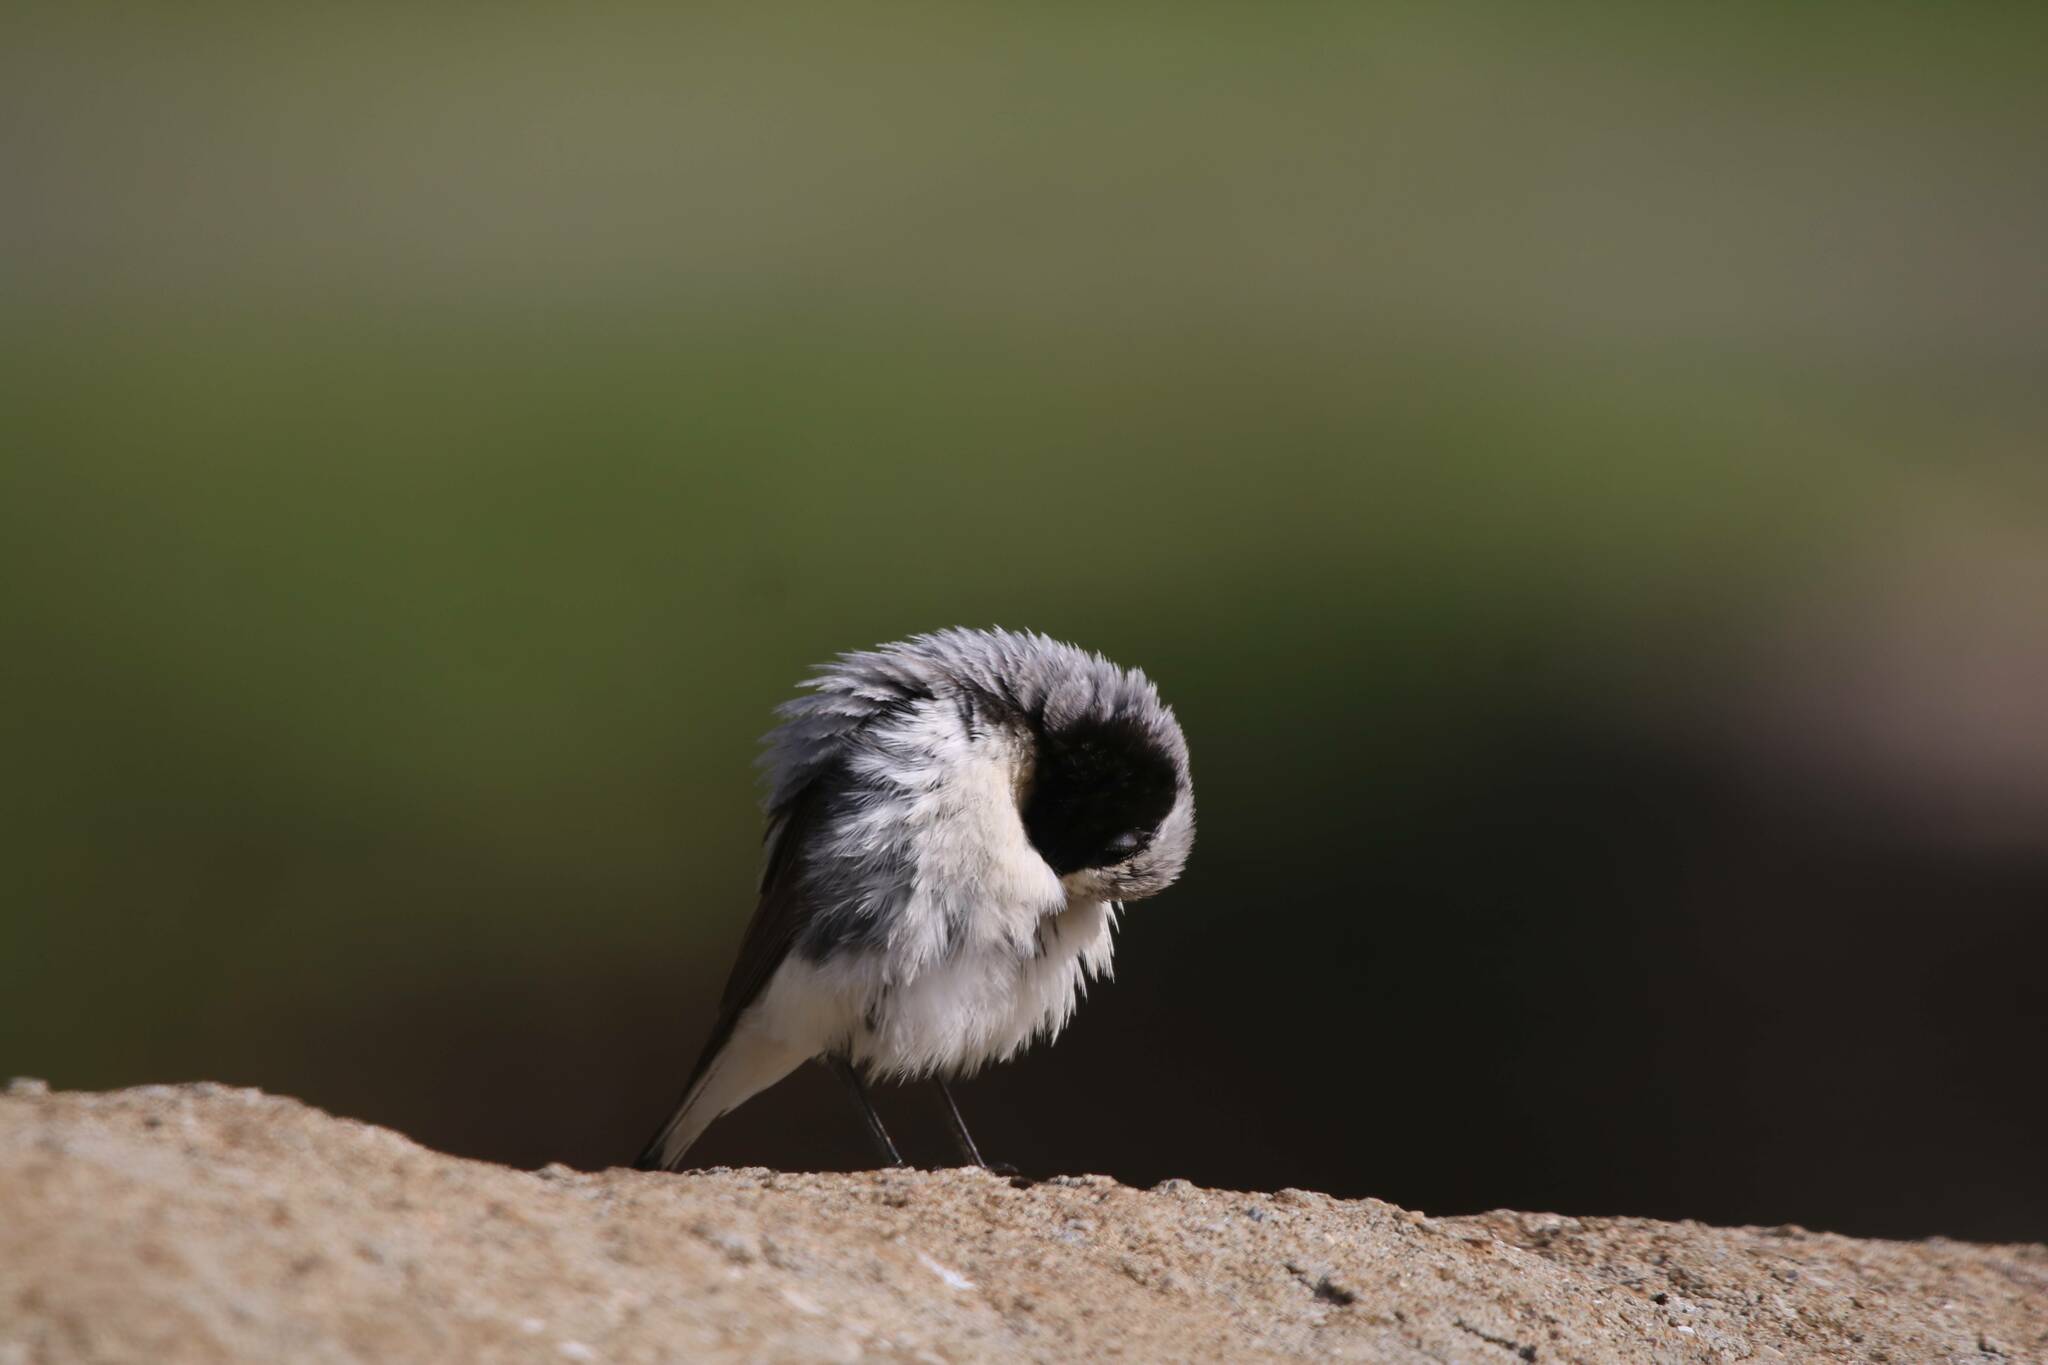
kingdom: Animalia
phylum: Chordata
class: Aves
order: Passeriformes
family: Muscicapidae
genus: Oenanthe
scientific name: Oenanthe oenanthe
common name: Northern wheatear
